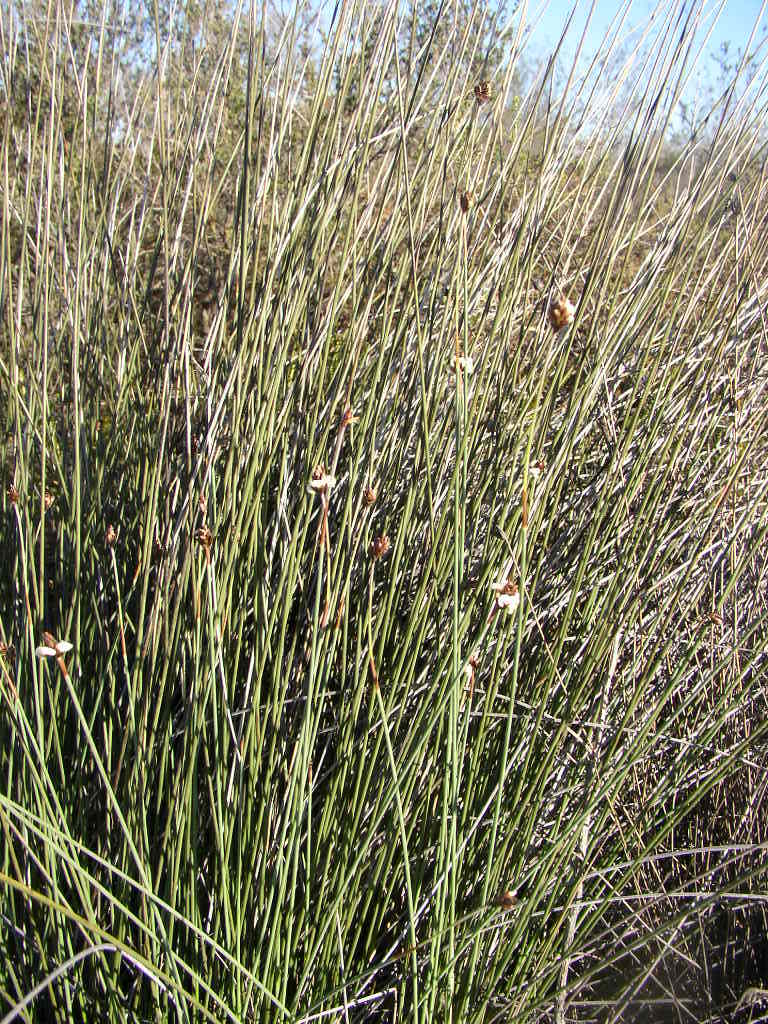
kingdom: Plantae
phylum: Tracheophyta
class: Liliopsida
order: Poales
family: Ecdeiocoleaceae
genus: Ecdeiocolea
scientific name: Ecdeiocolea monostachya
